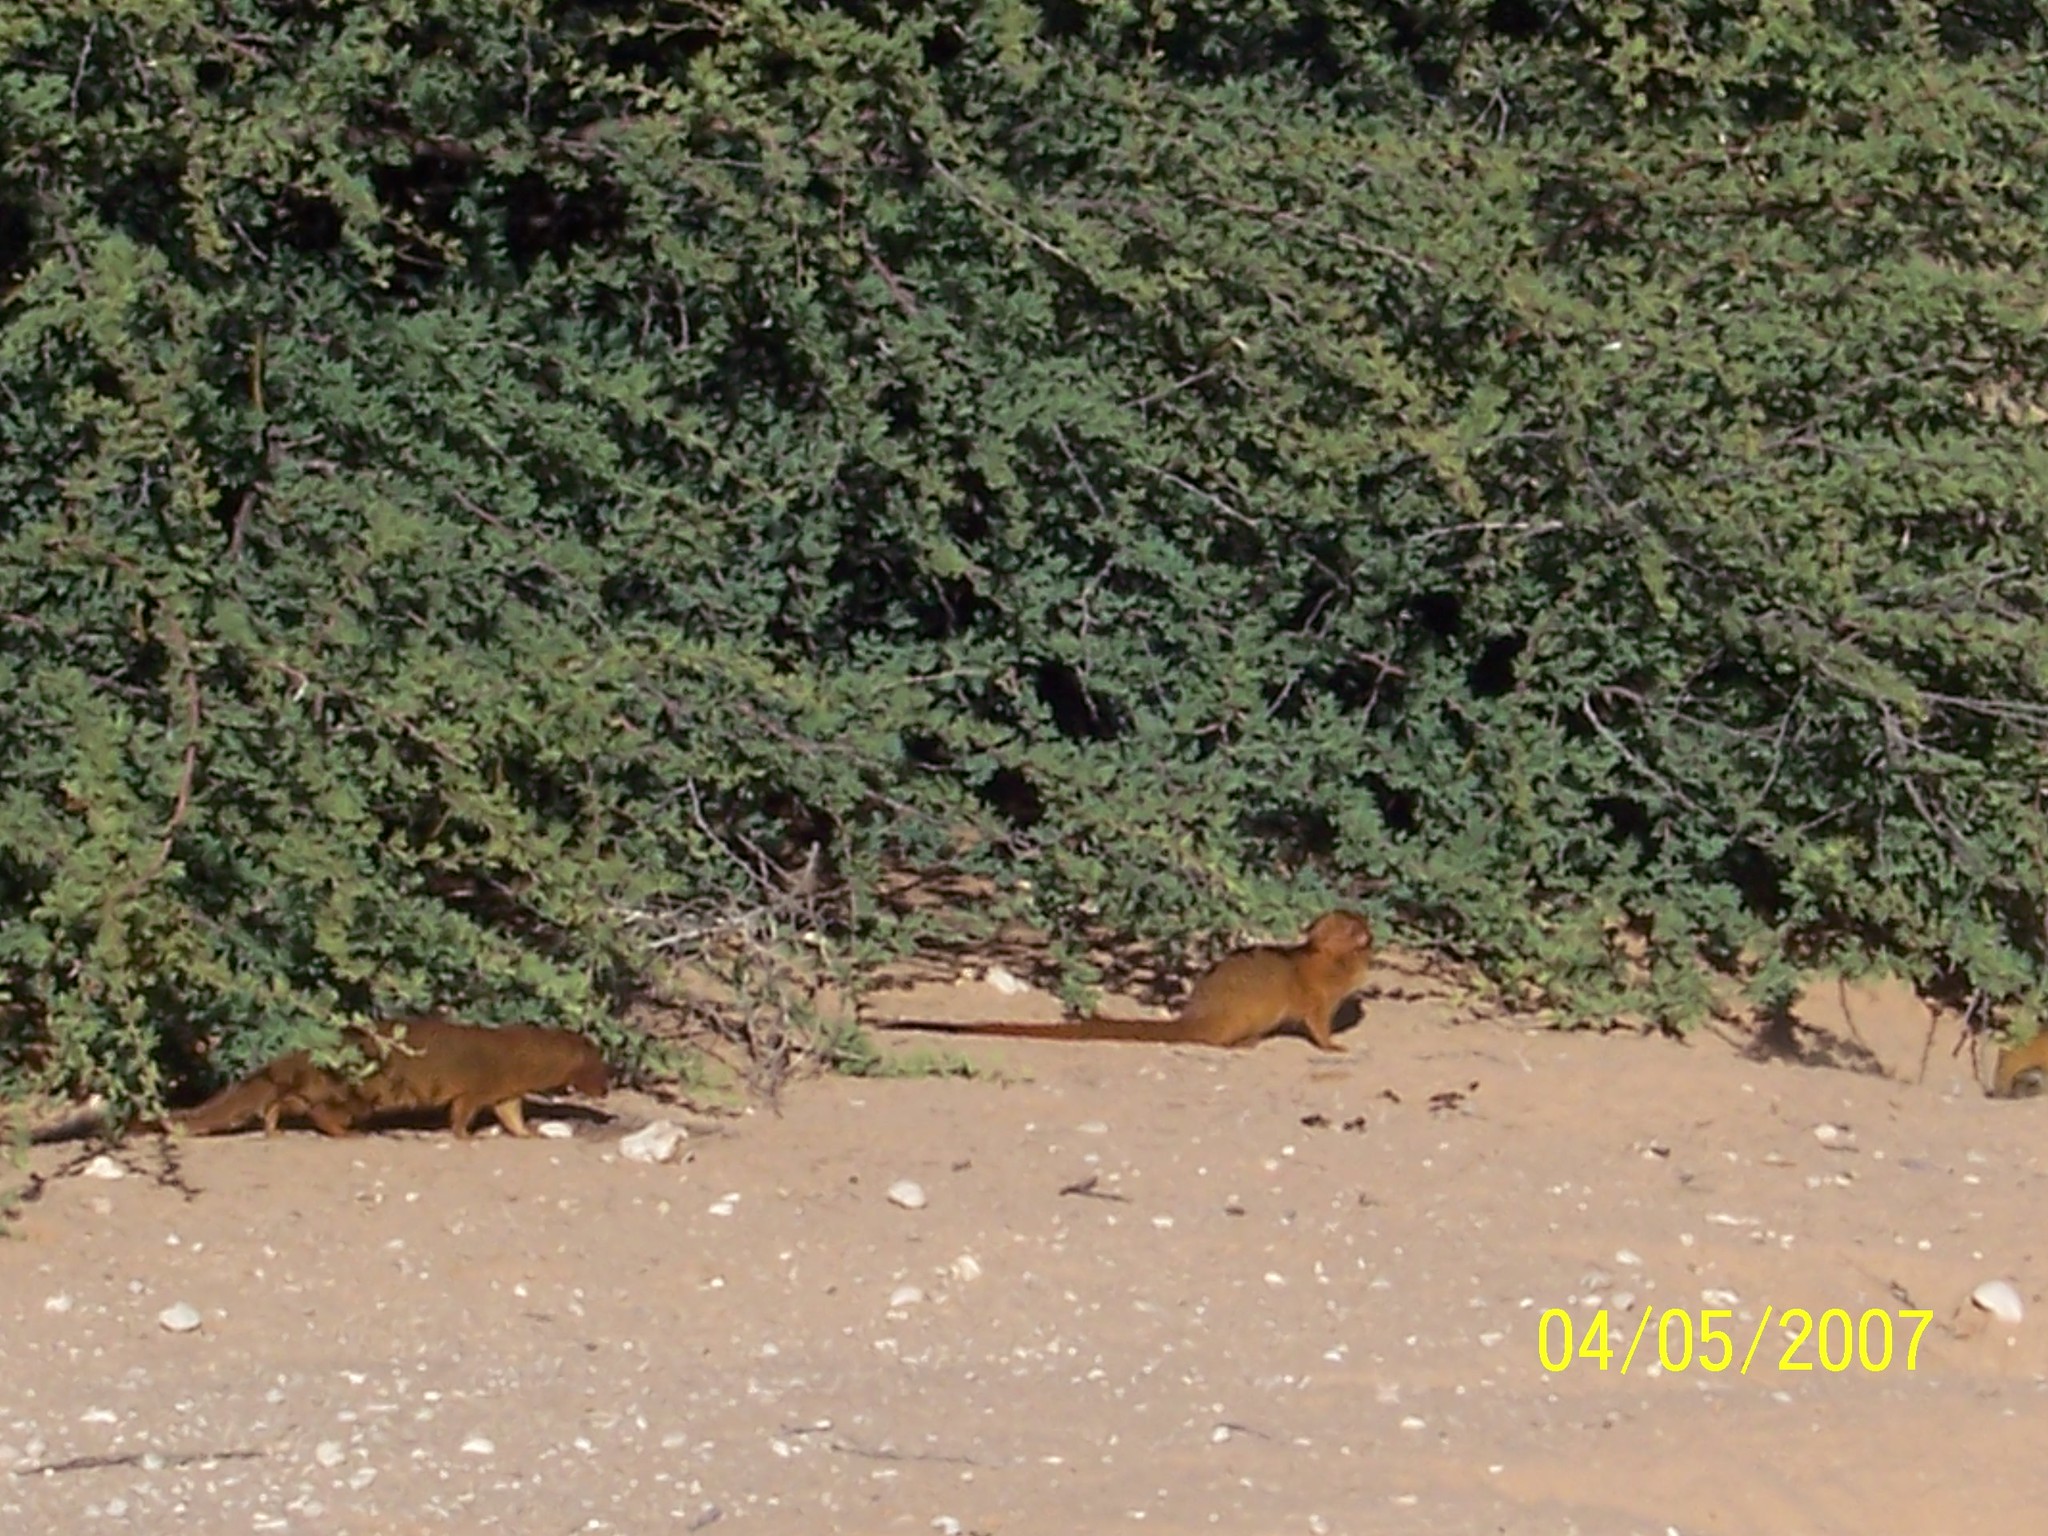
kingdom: Animalia
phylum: Chordata
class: Mammalia
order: Carnivora
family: Herpestidae
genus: Galerella
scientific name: Galerella sanguinea
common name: Slender mongoose
